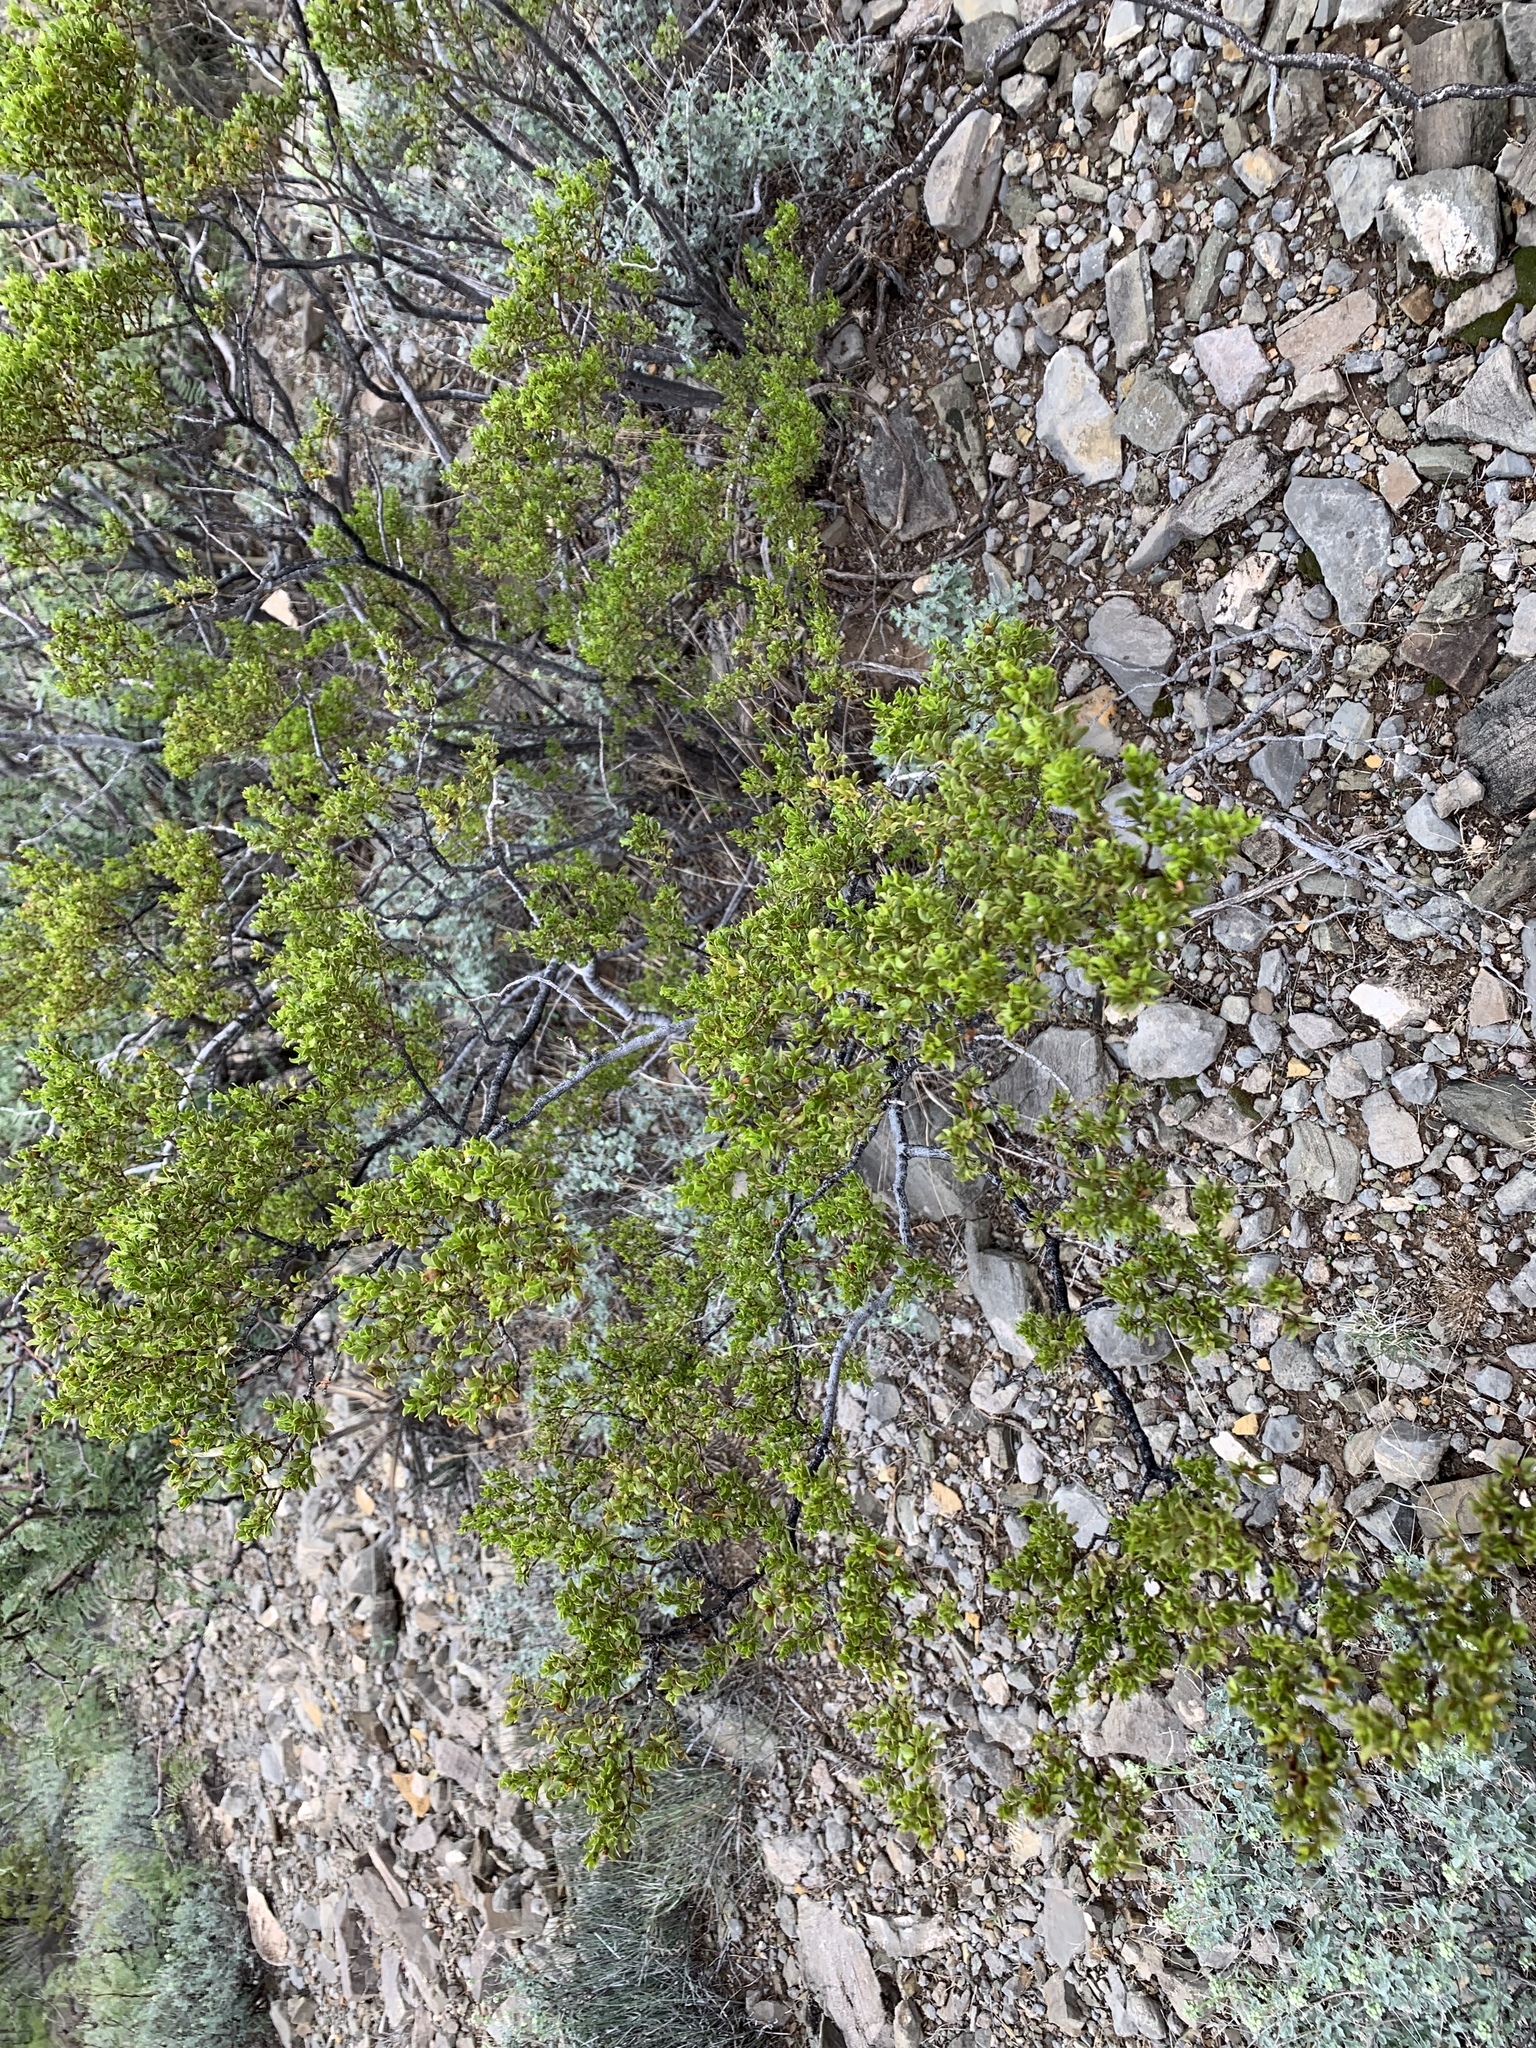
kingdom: Plantae
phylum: Tracheophyta
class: Magnoliopsida
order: Zygophyllales
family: Zygophyllaceae
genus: Larrea
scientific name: Larrea tridentata
